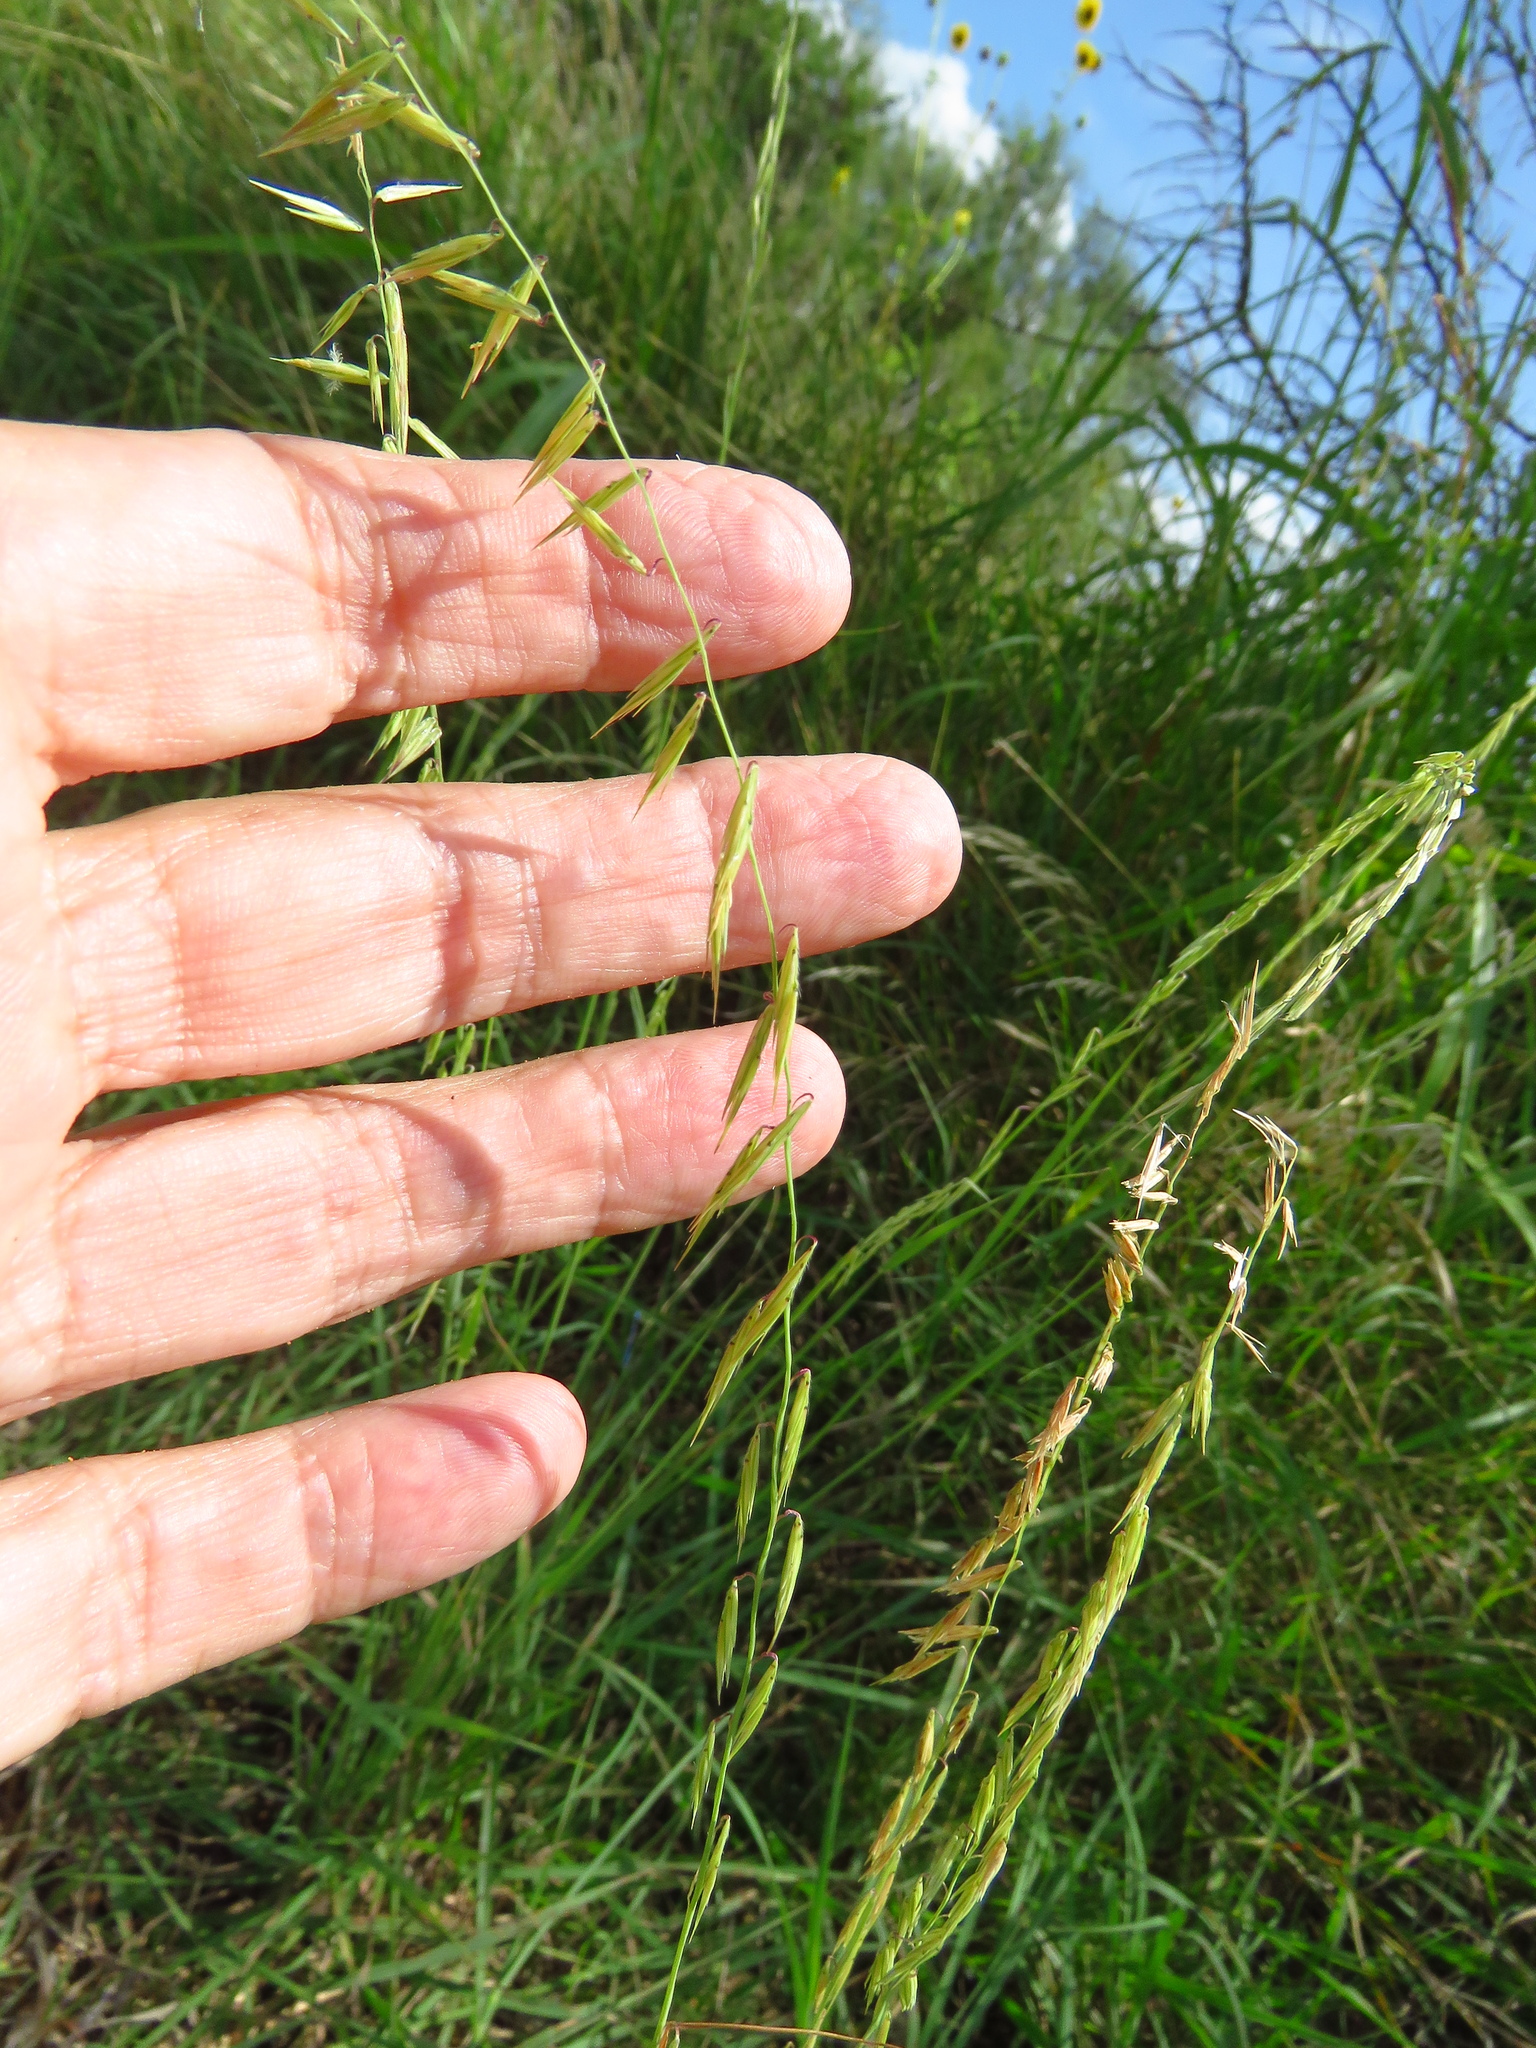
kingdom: Plantae
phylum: Tracheophyta
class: Liliopsida
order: Poales
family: Poaceae
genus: Bouteloua
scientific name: Bouteloua curtipendula
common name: Side-oats grama
